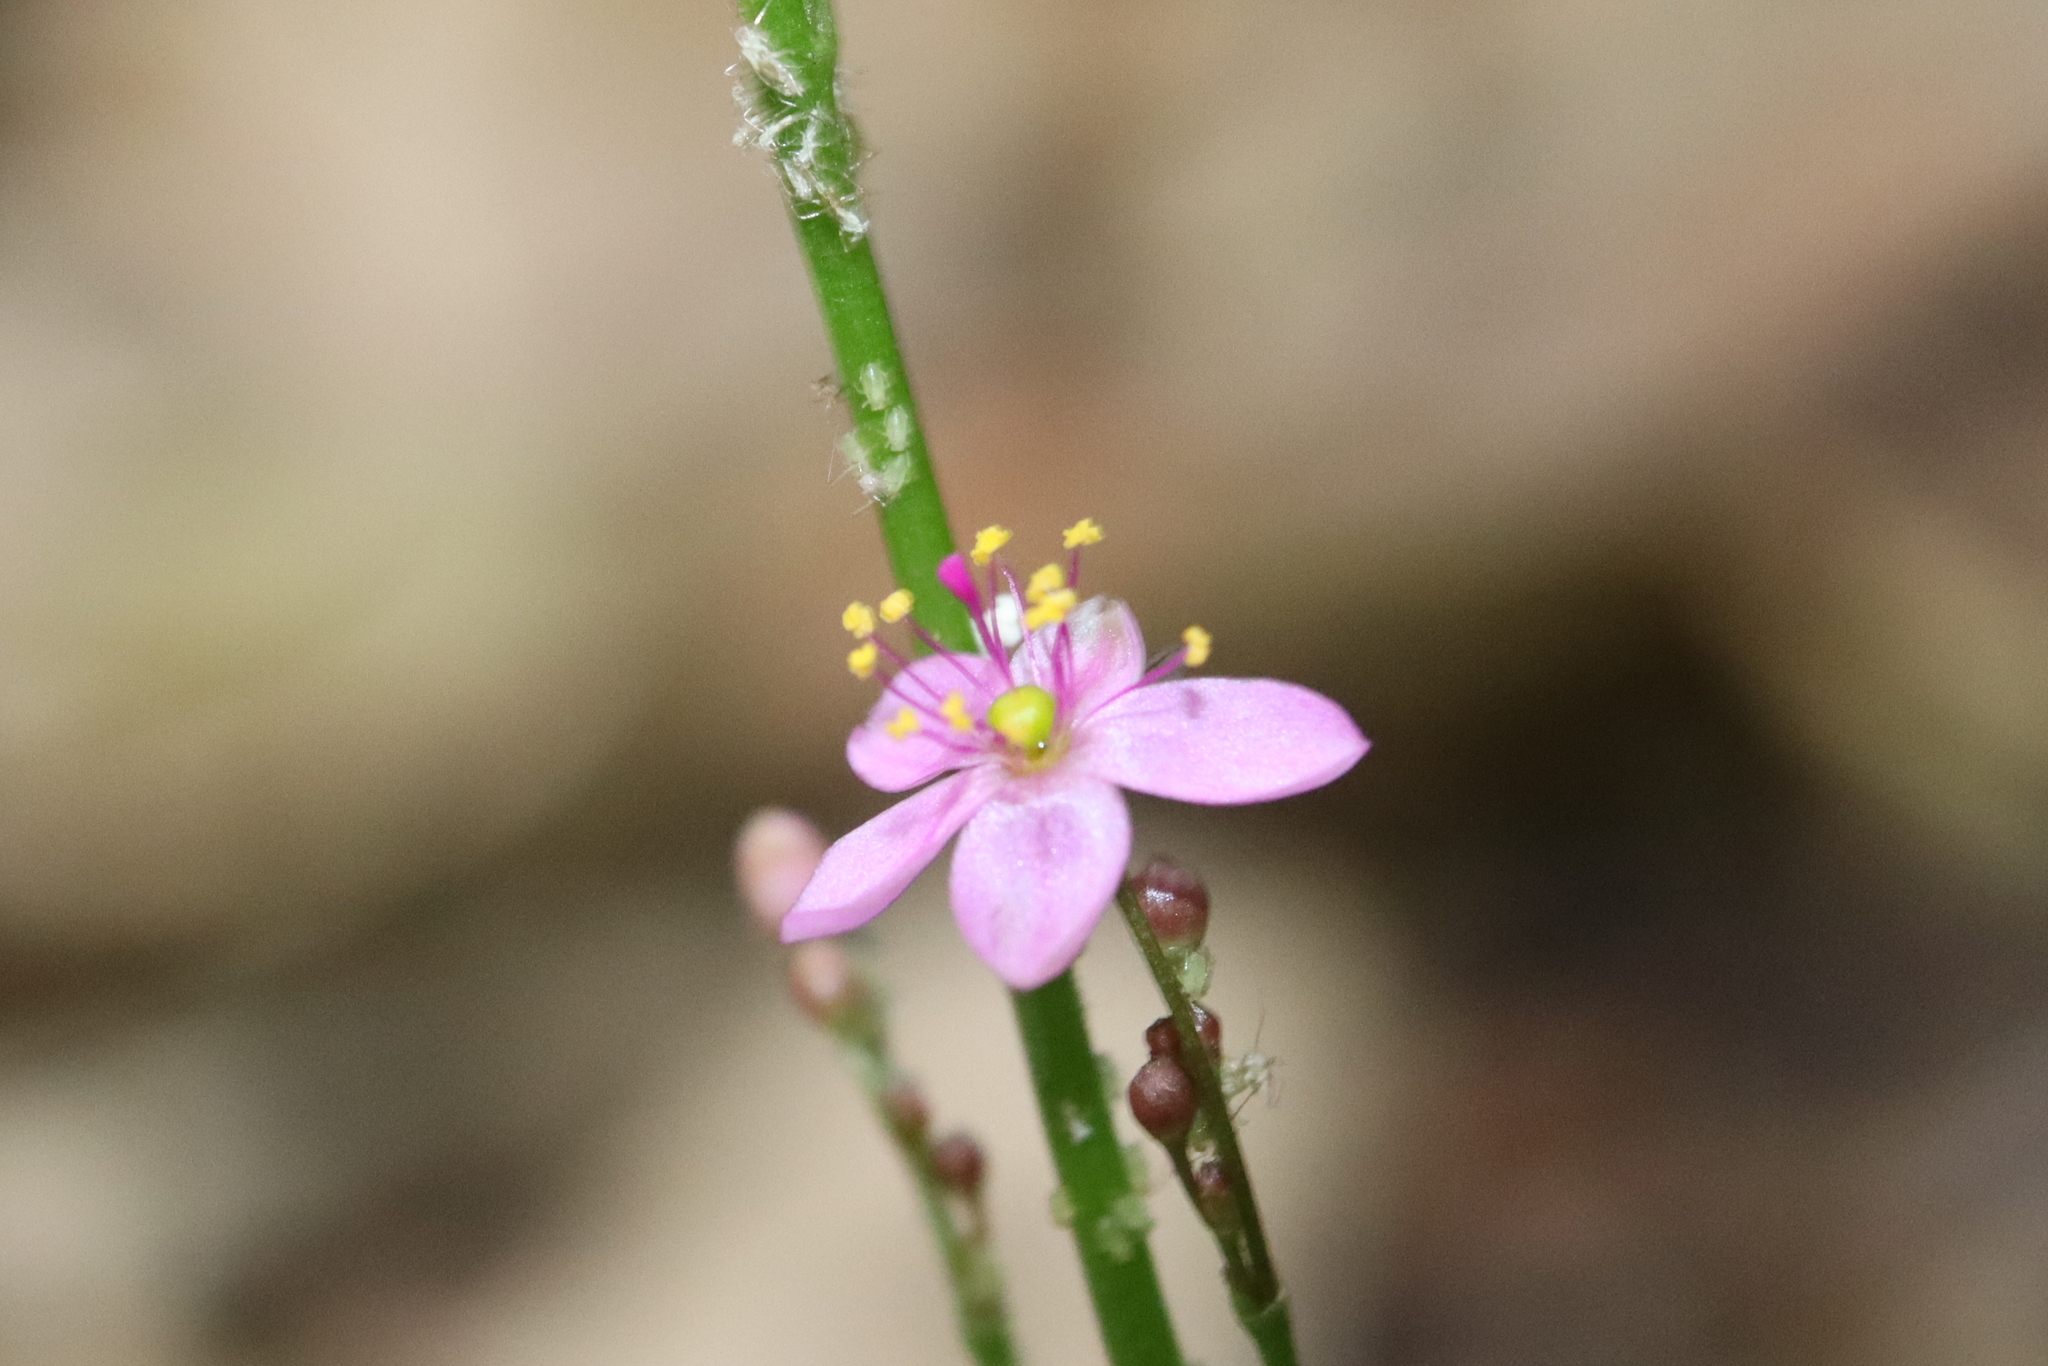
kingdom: Plantae
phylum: Tracheophyta
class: Magnoliopsida
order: Caryophyllales
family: Talinaceae
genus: Talinum
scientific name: Talinum paniculatum
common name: Jewels of opar
